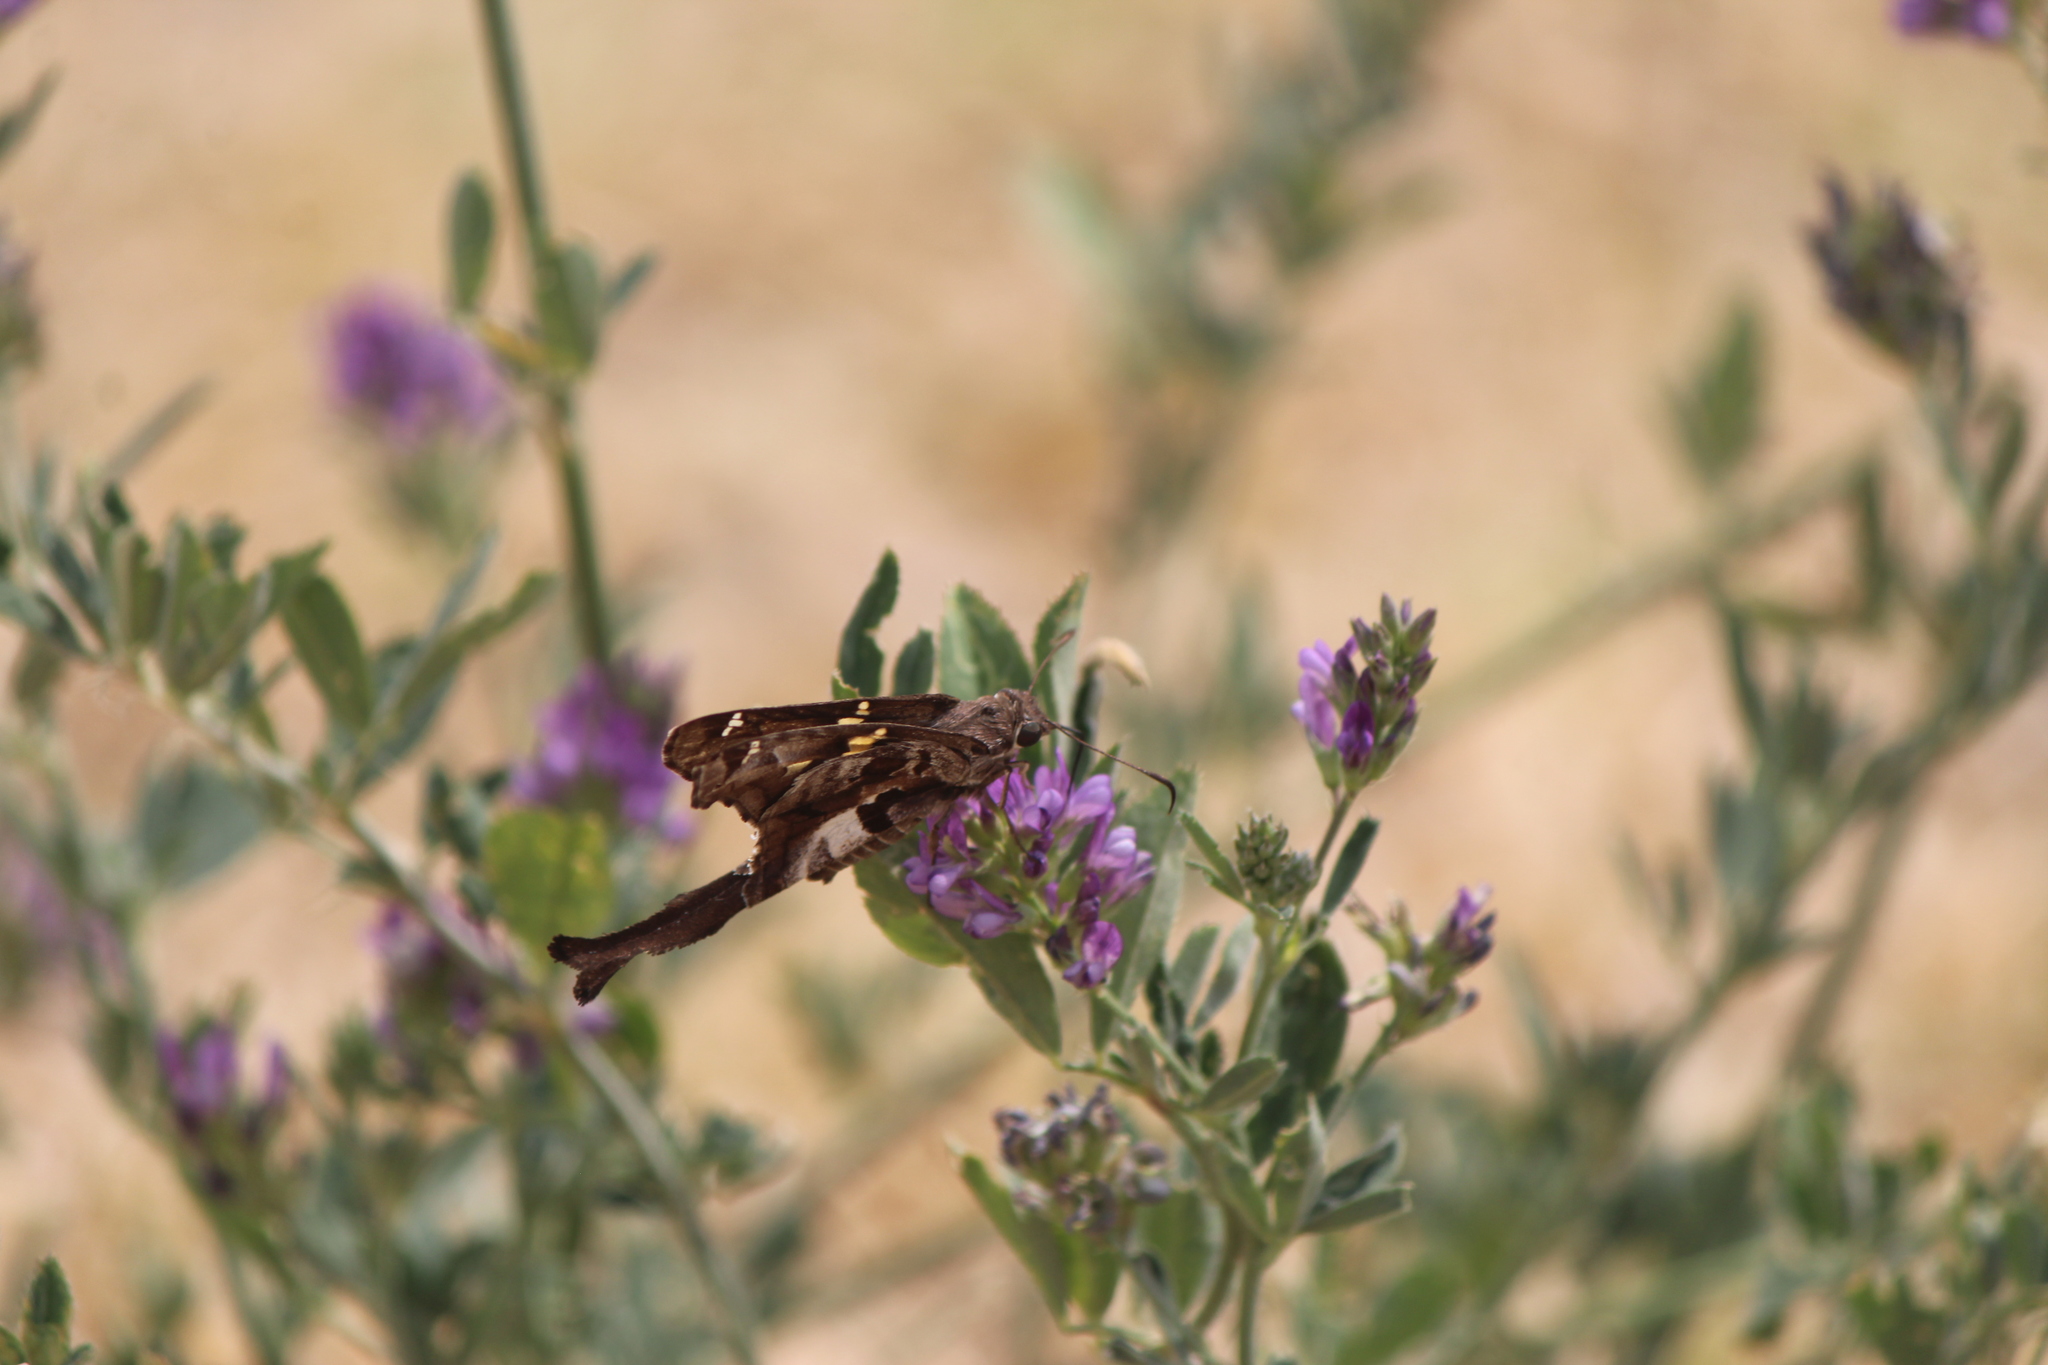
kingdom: Animalia
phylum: Arthropoda
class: Insecta
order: Lepidoptera
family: Hesperiidae
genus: Chioides
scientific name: Chioides zilpa
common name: Zilpa longtail
